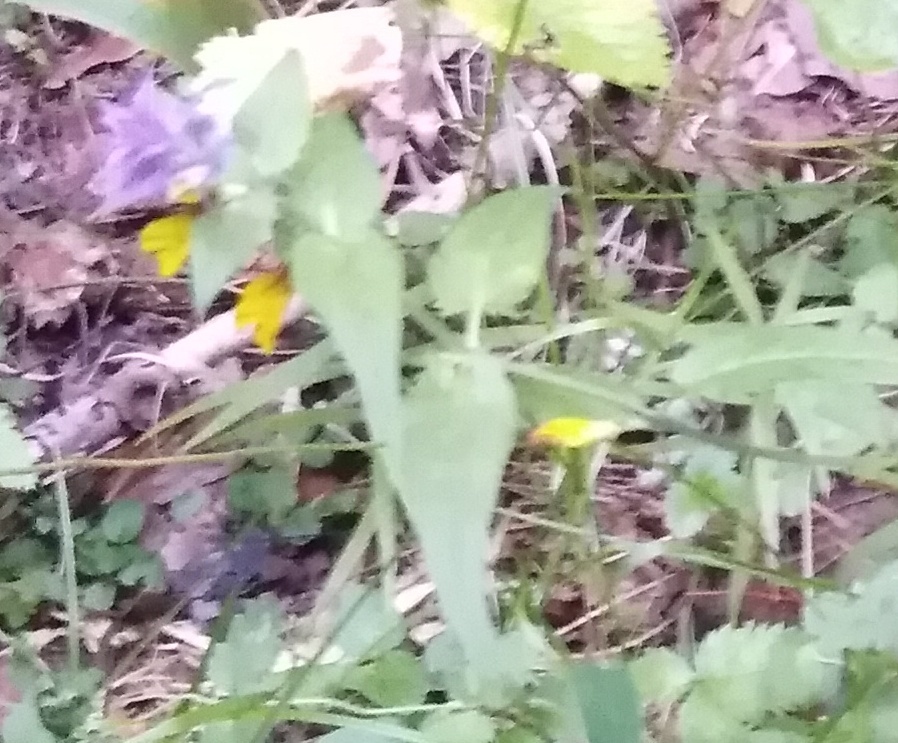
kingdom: Plantae
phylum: Tracheophyta
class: Magnoliopsida
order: Lamiales
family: Orobanchaceae
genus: Melampyrum
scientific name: Melampyrum nemorosum
